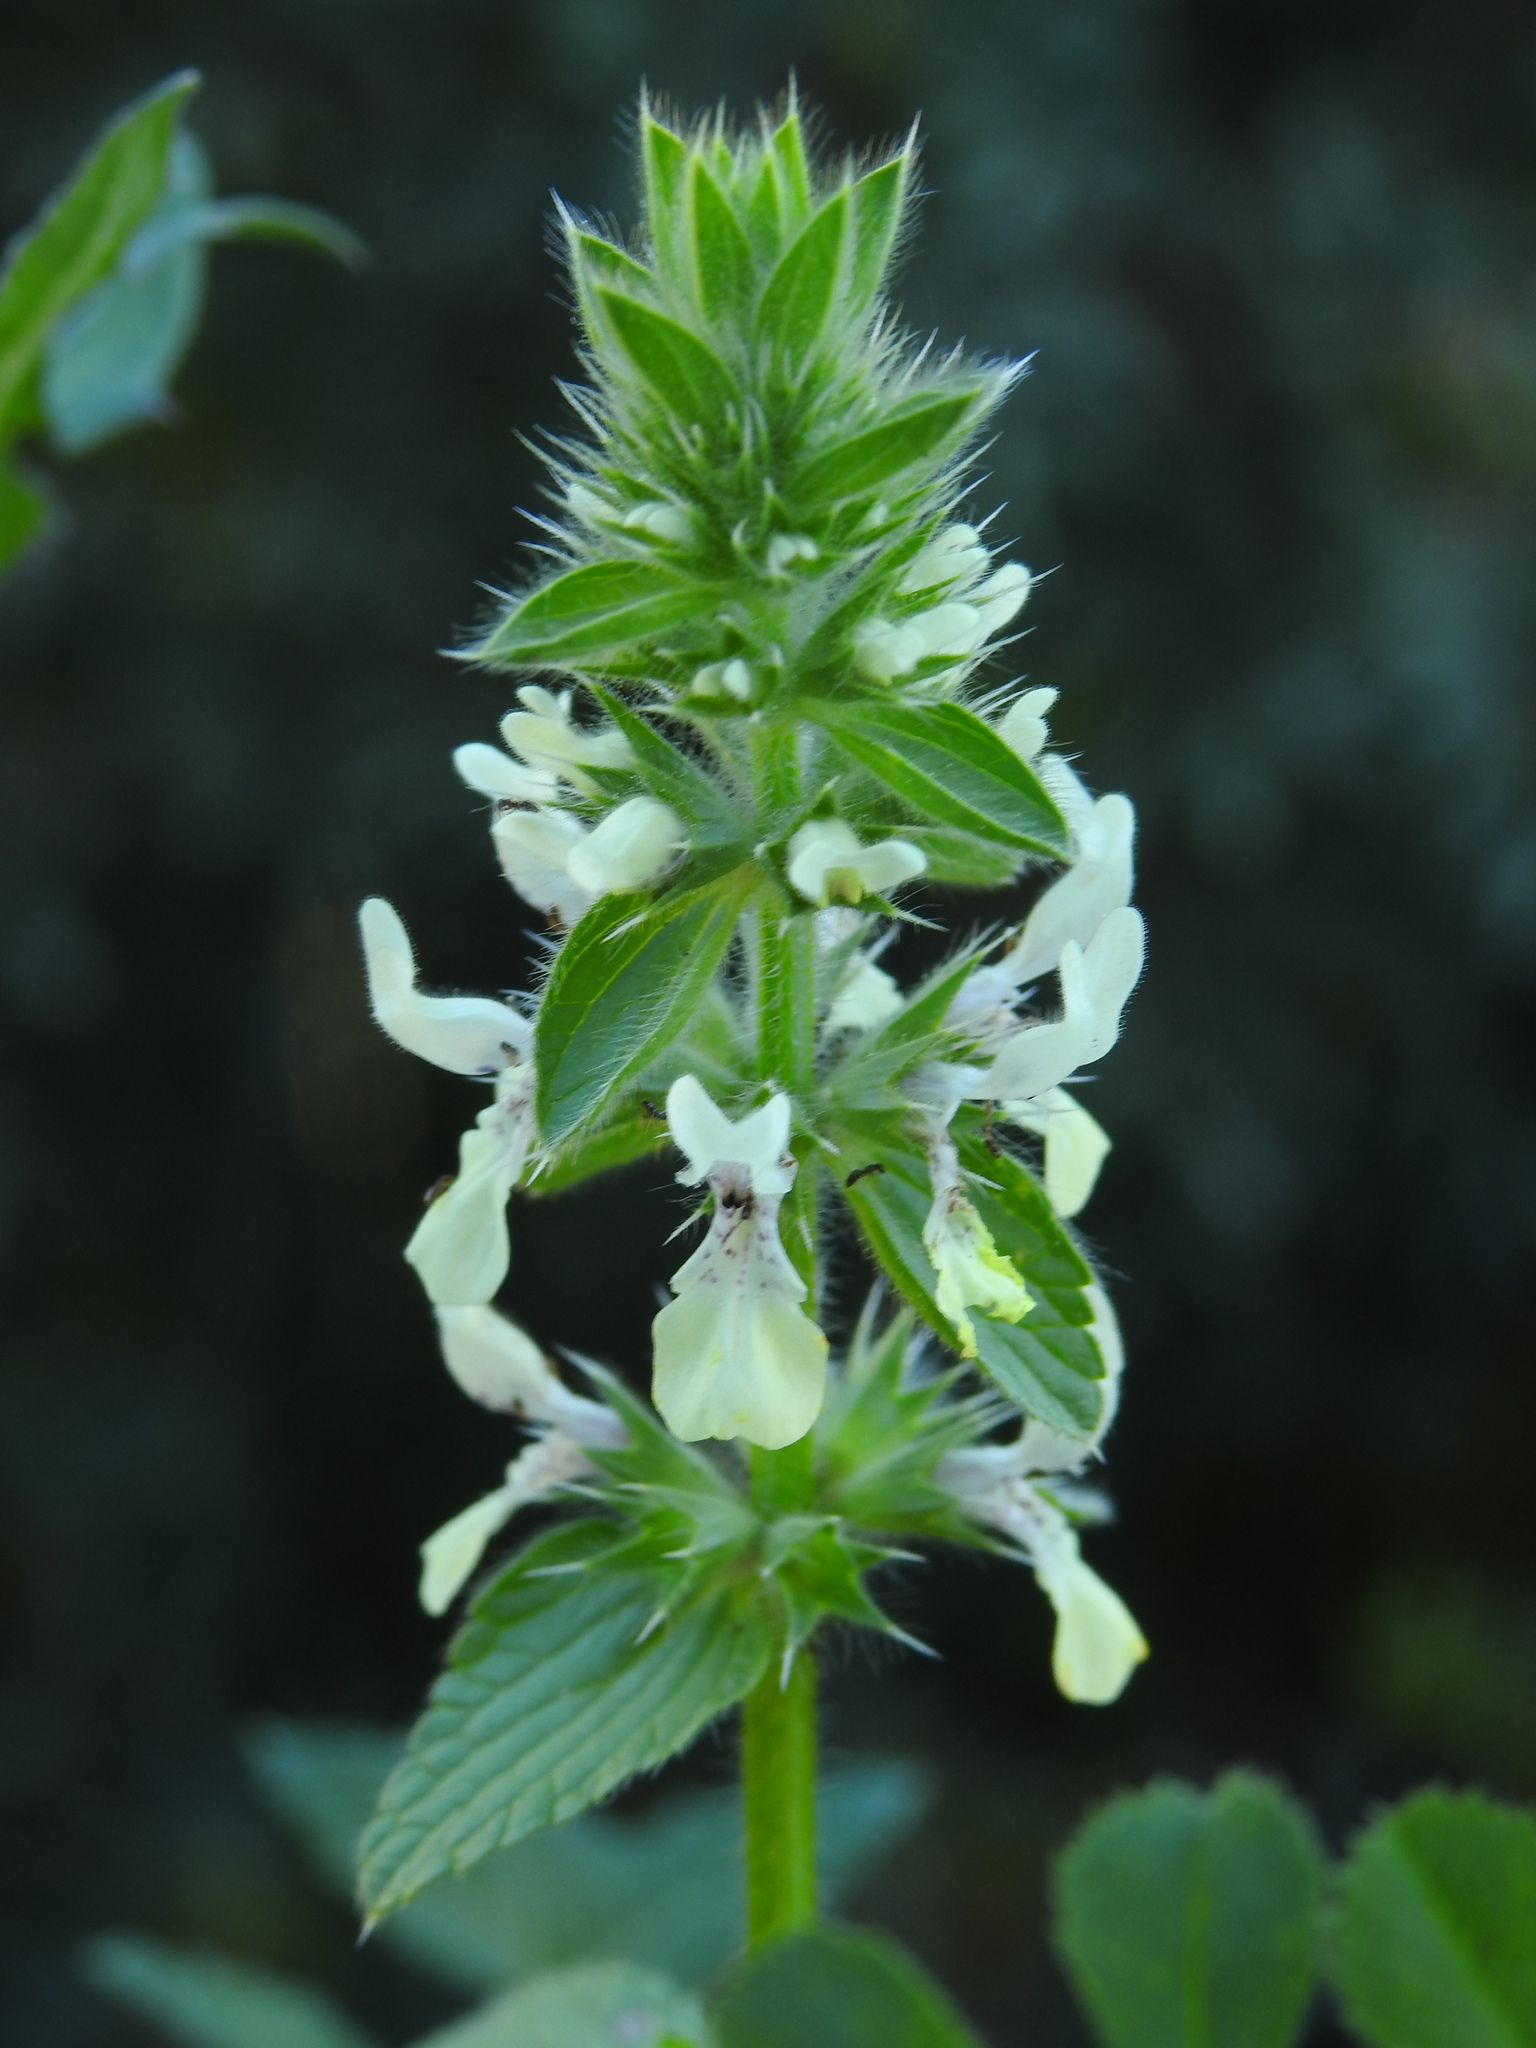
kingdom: Plantae
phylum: Tracheophyta
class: Magnoliopsida
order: Lamiales
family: Lamiaceae
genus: Stachys
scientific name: Stachys ocymastrum
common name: Italian hedgenettle
